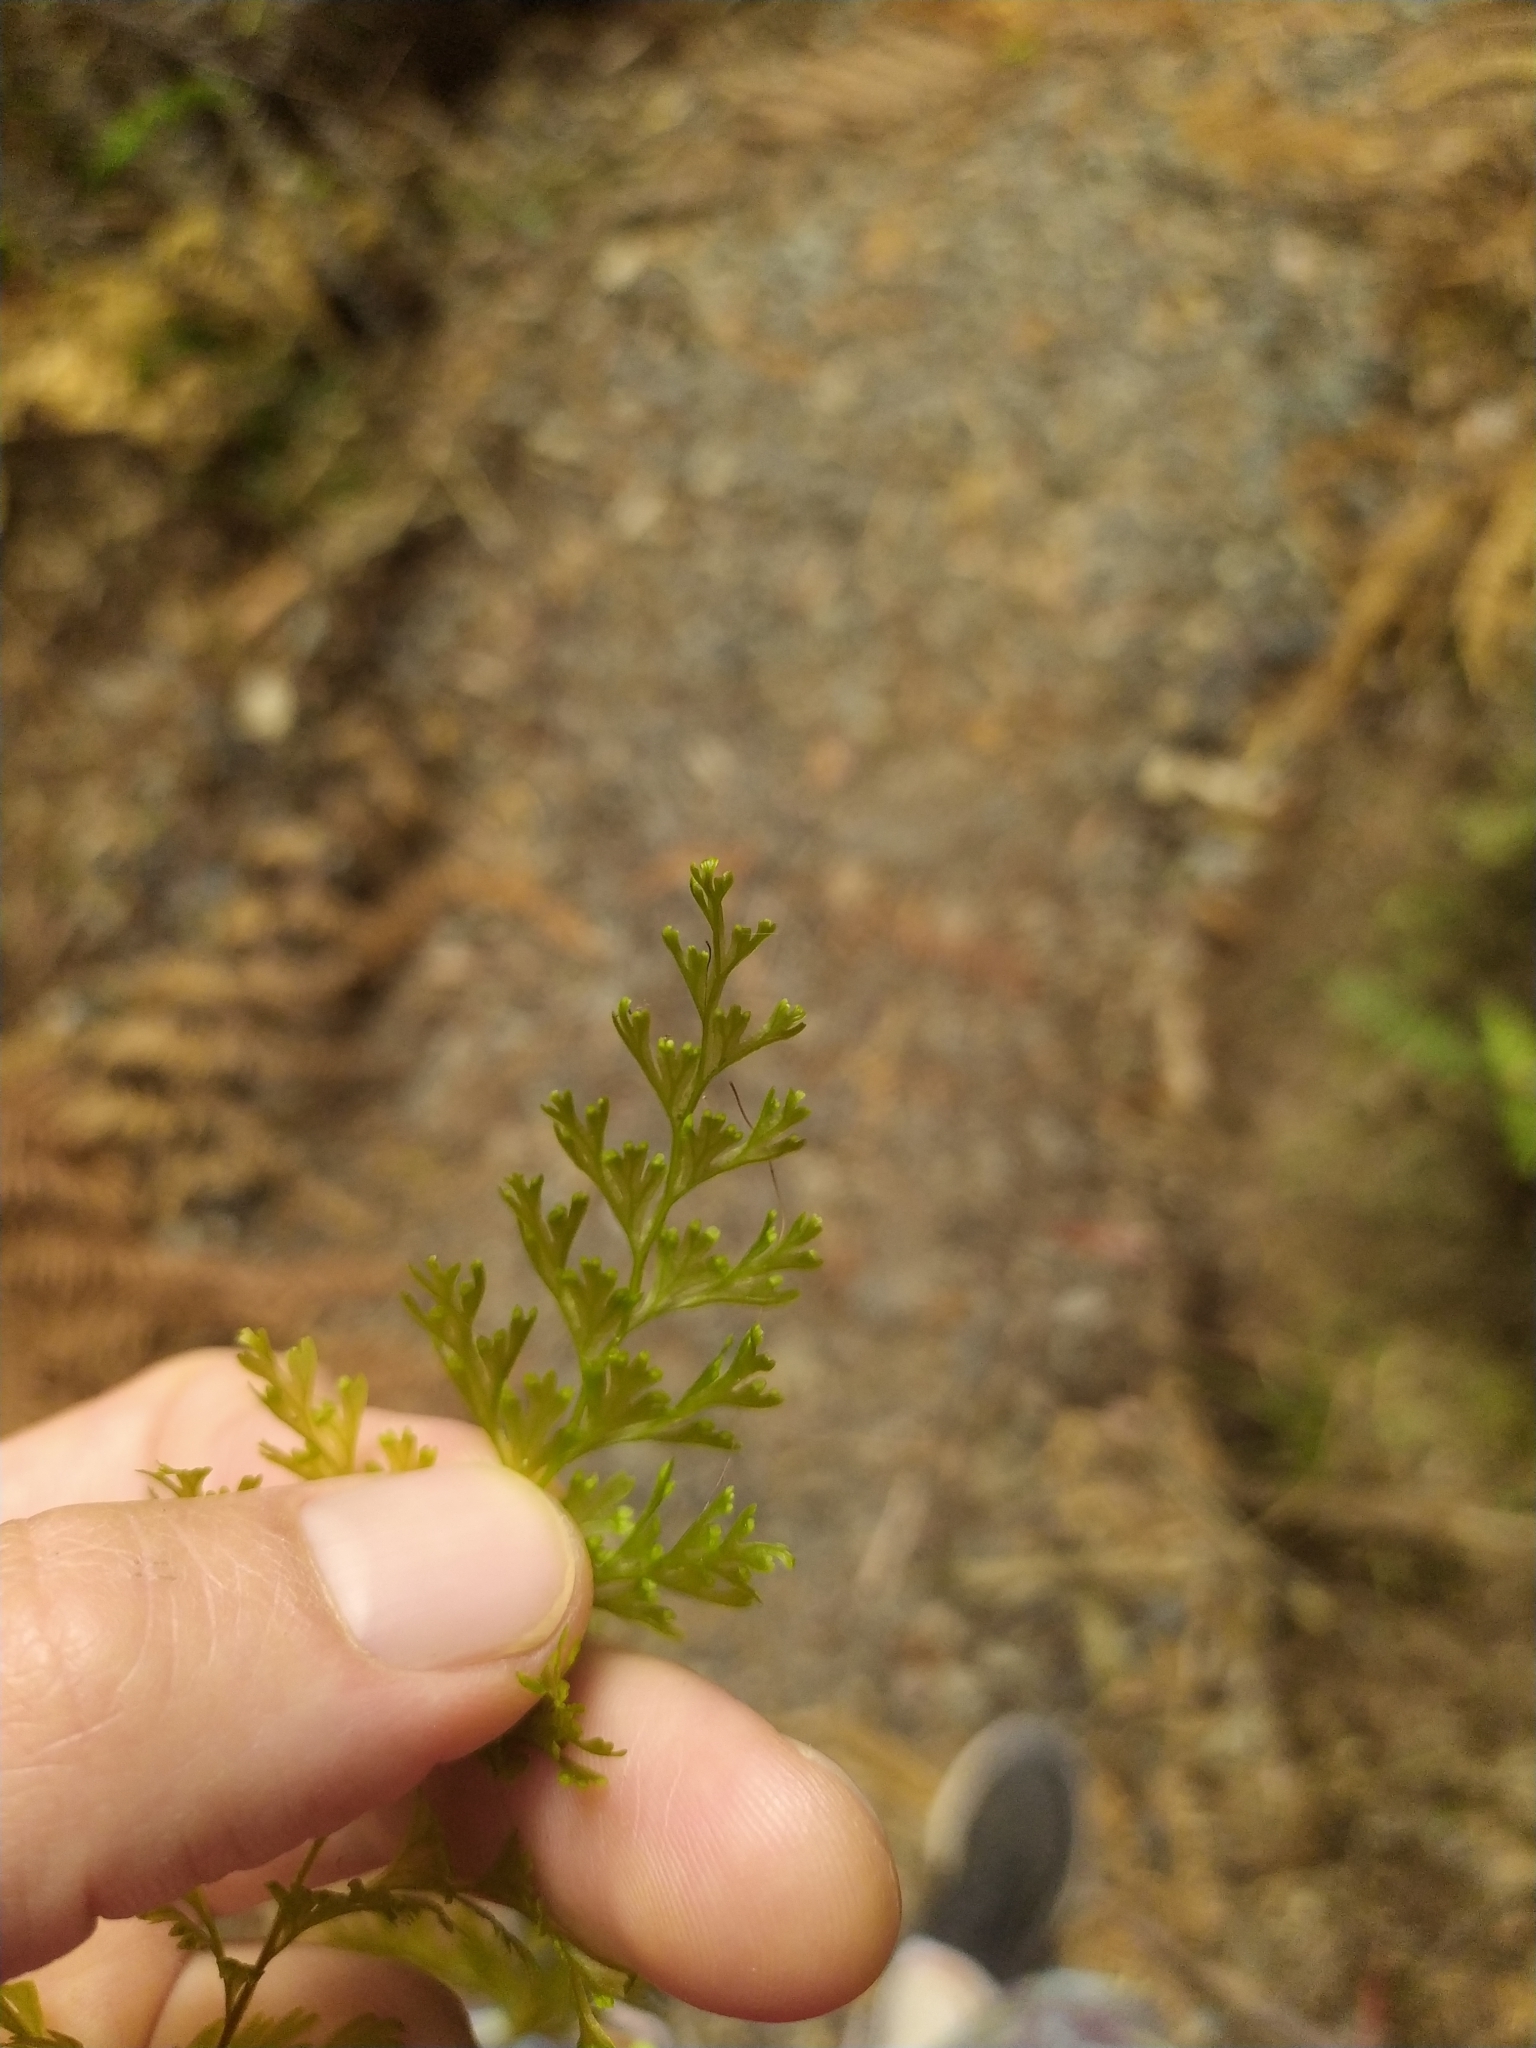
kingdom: Plantae
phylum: Tracheophyta
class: Polypodiopsida
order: Hymenophyllales
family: Hymenophyllaceae
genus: Hymenophyllum
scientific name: Hymenophyllum demissum
